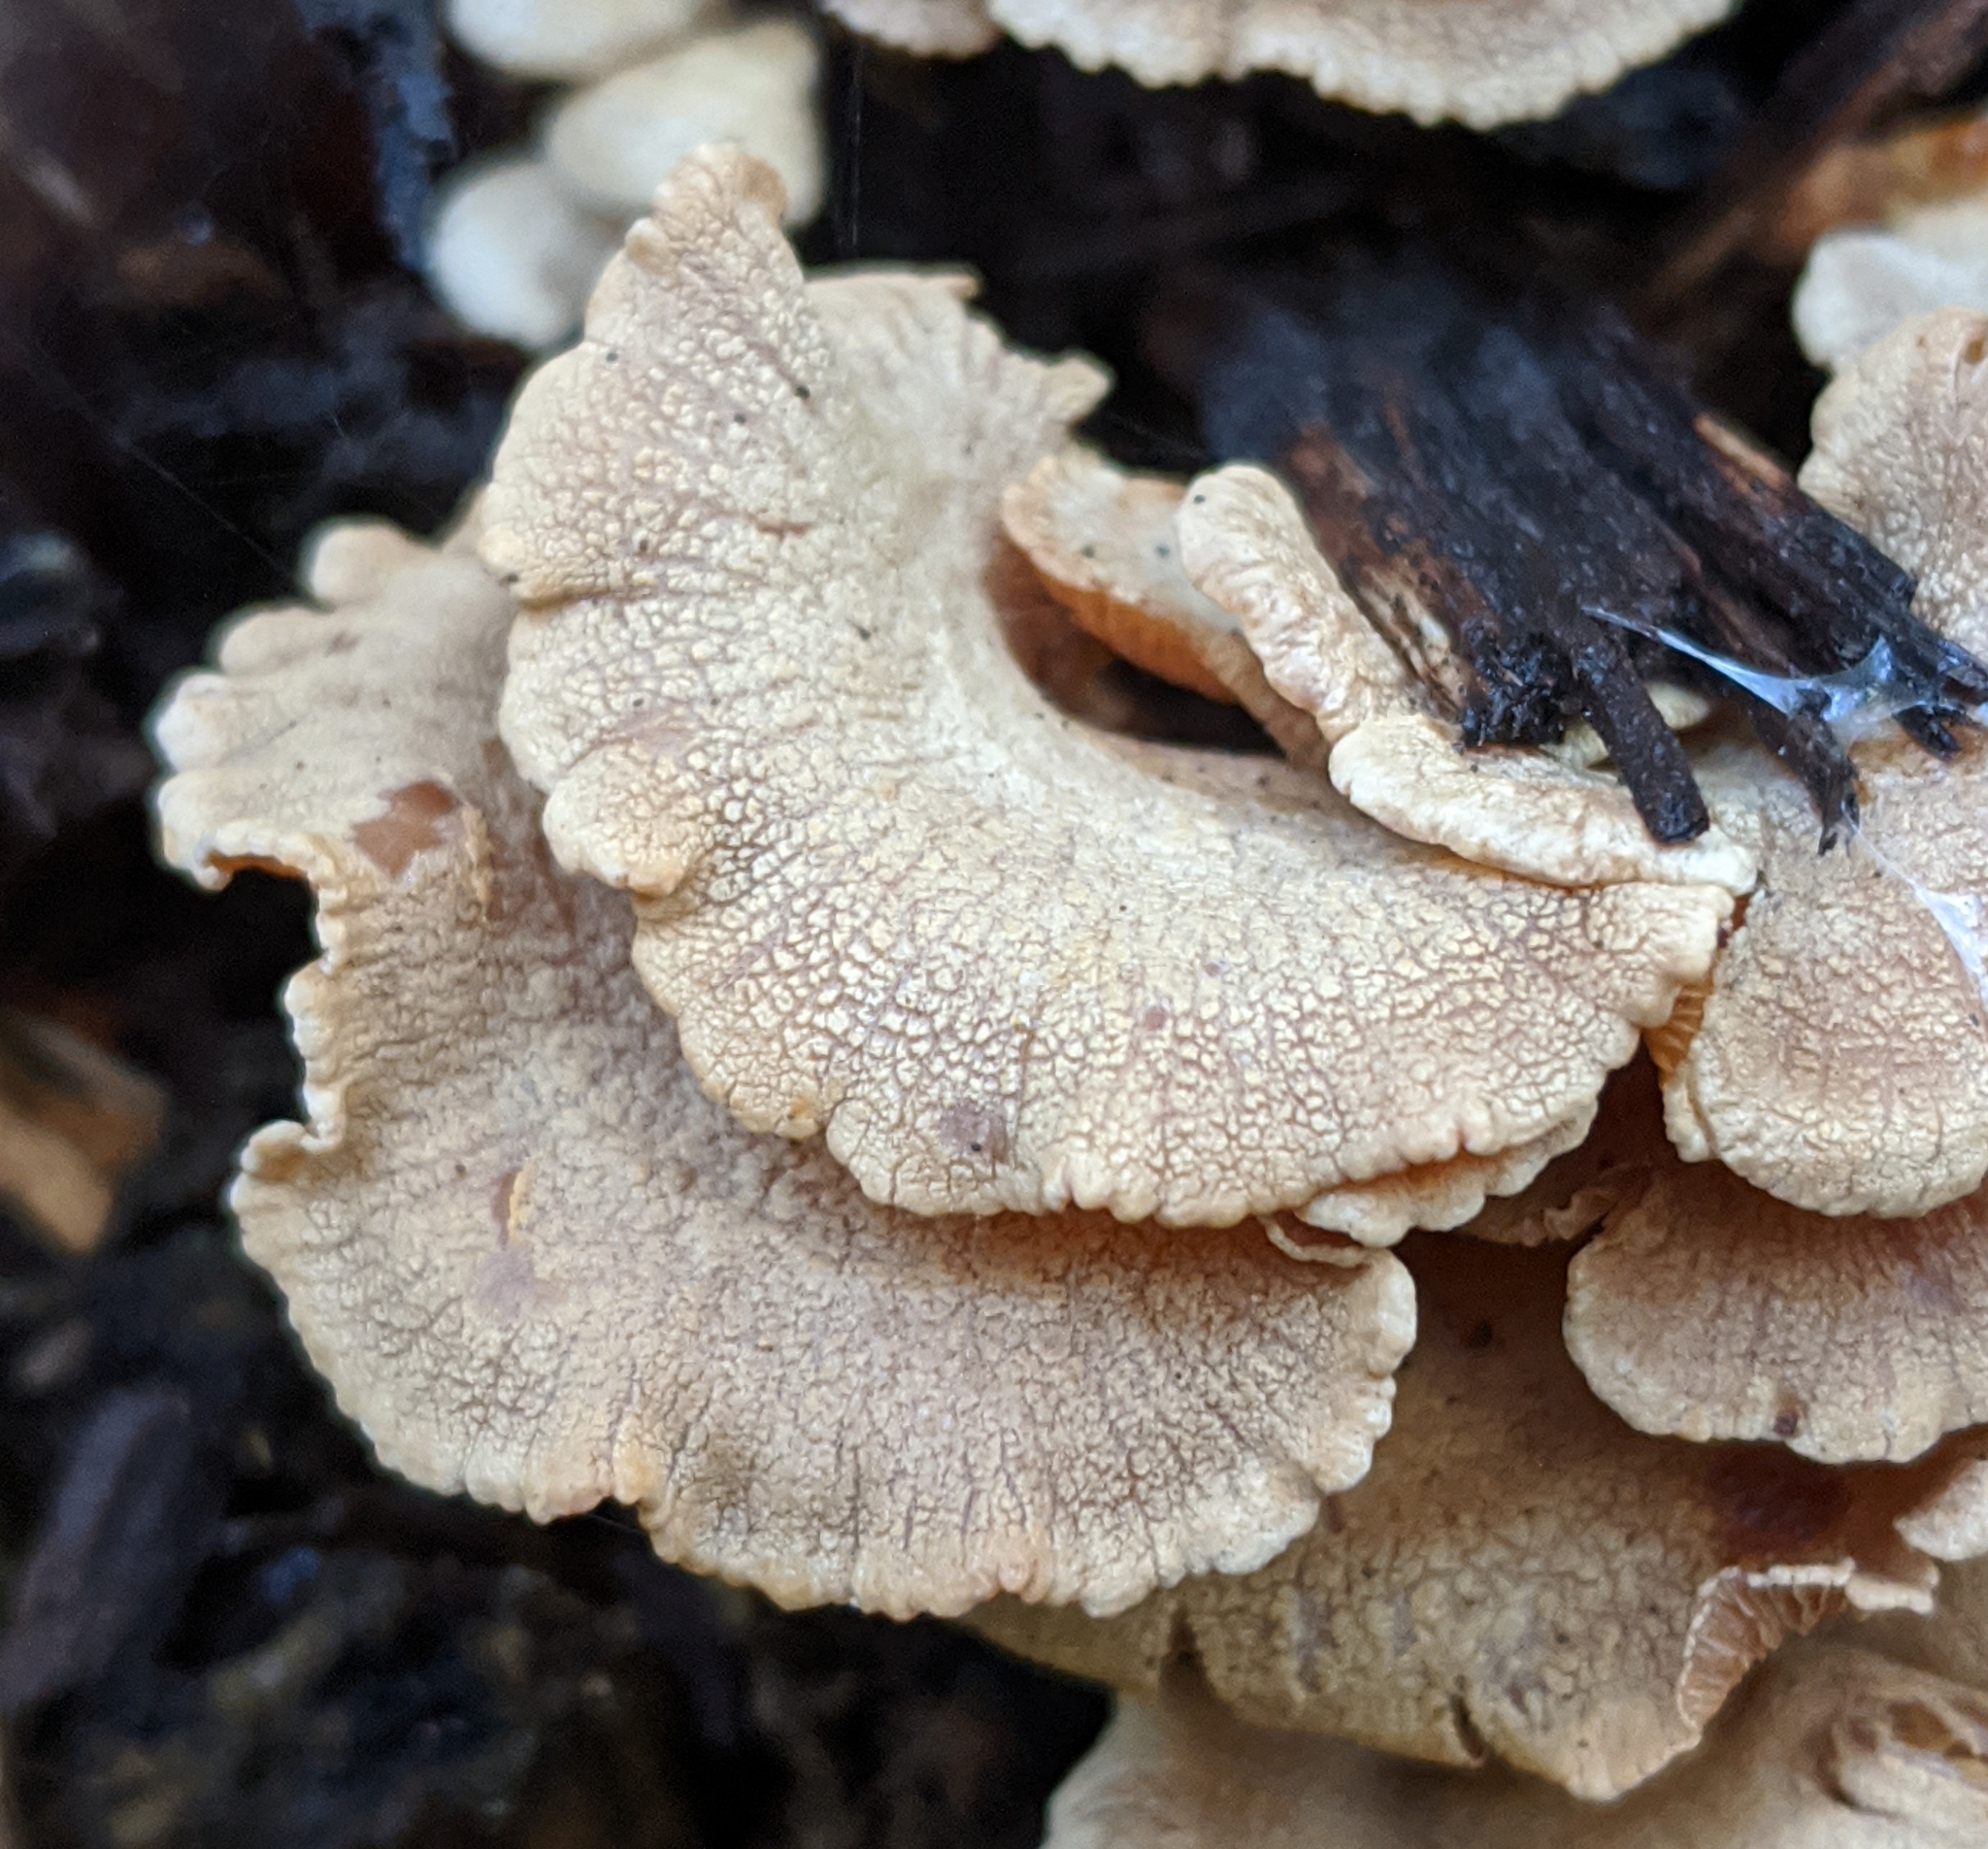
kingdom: Fungi
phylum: Basidiomycota
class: Agaricomycetes
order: Agaricales
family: Mycenaceae
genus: Panellus
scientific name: Panellus stipticus
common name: Bitter oysterling
